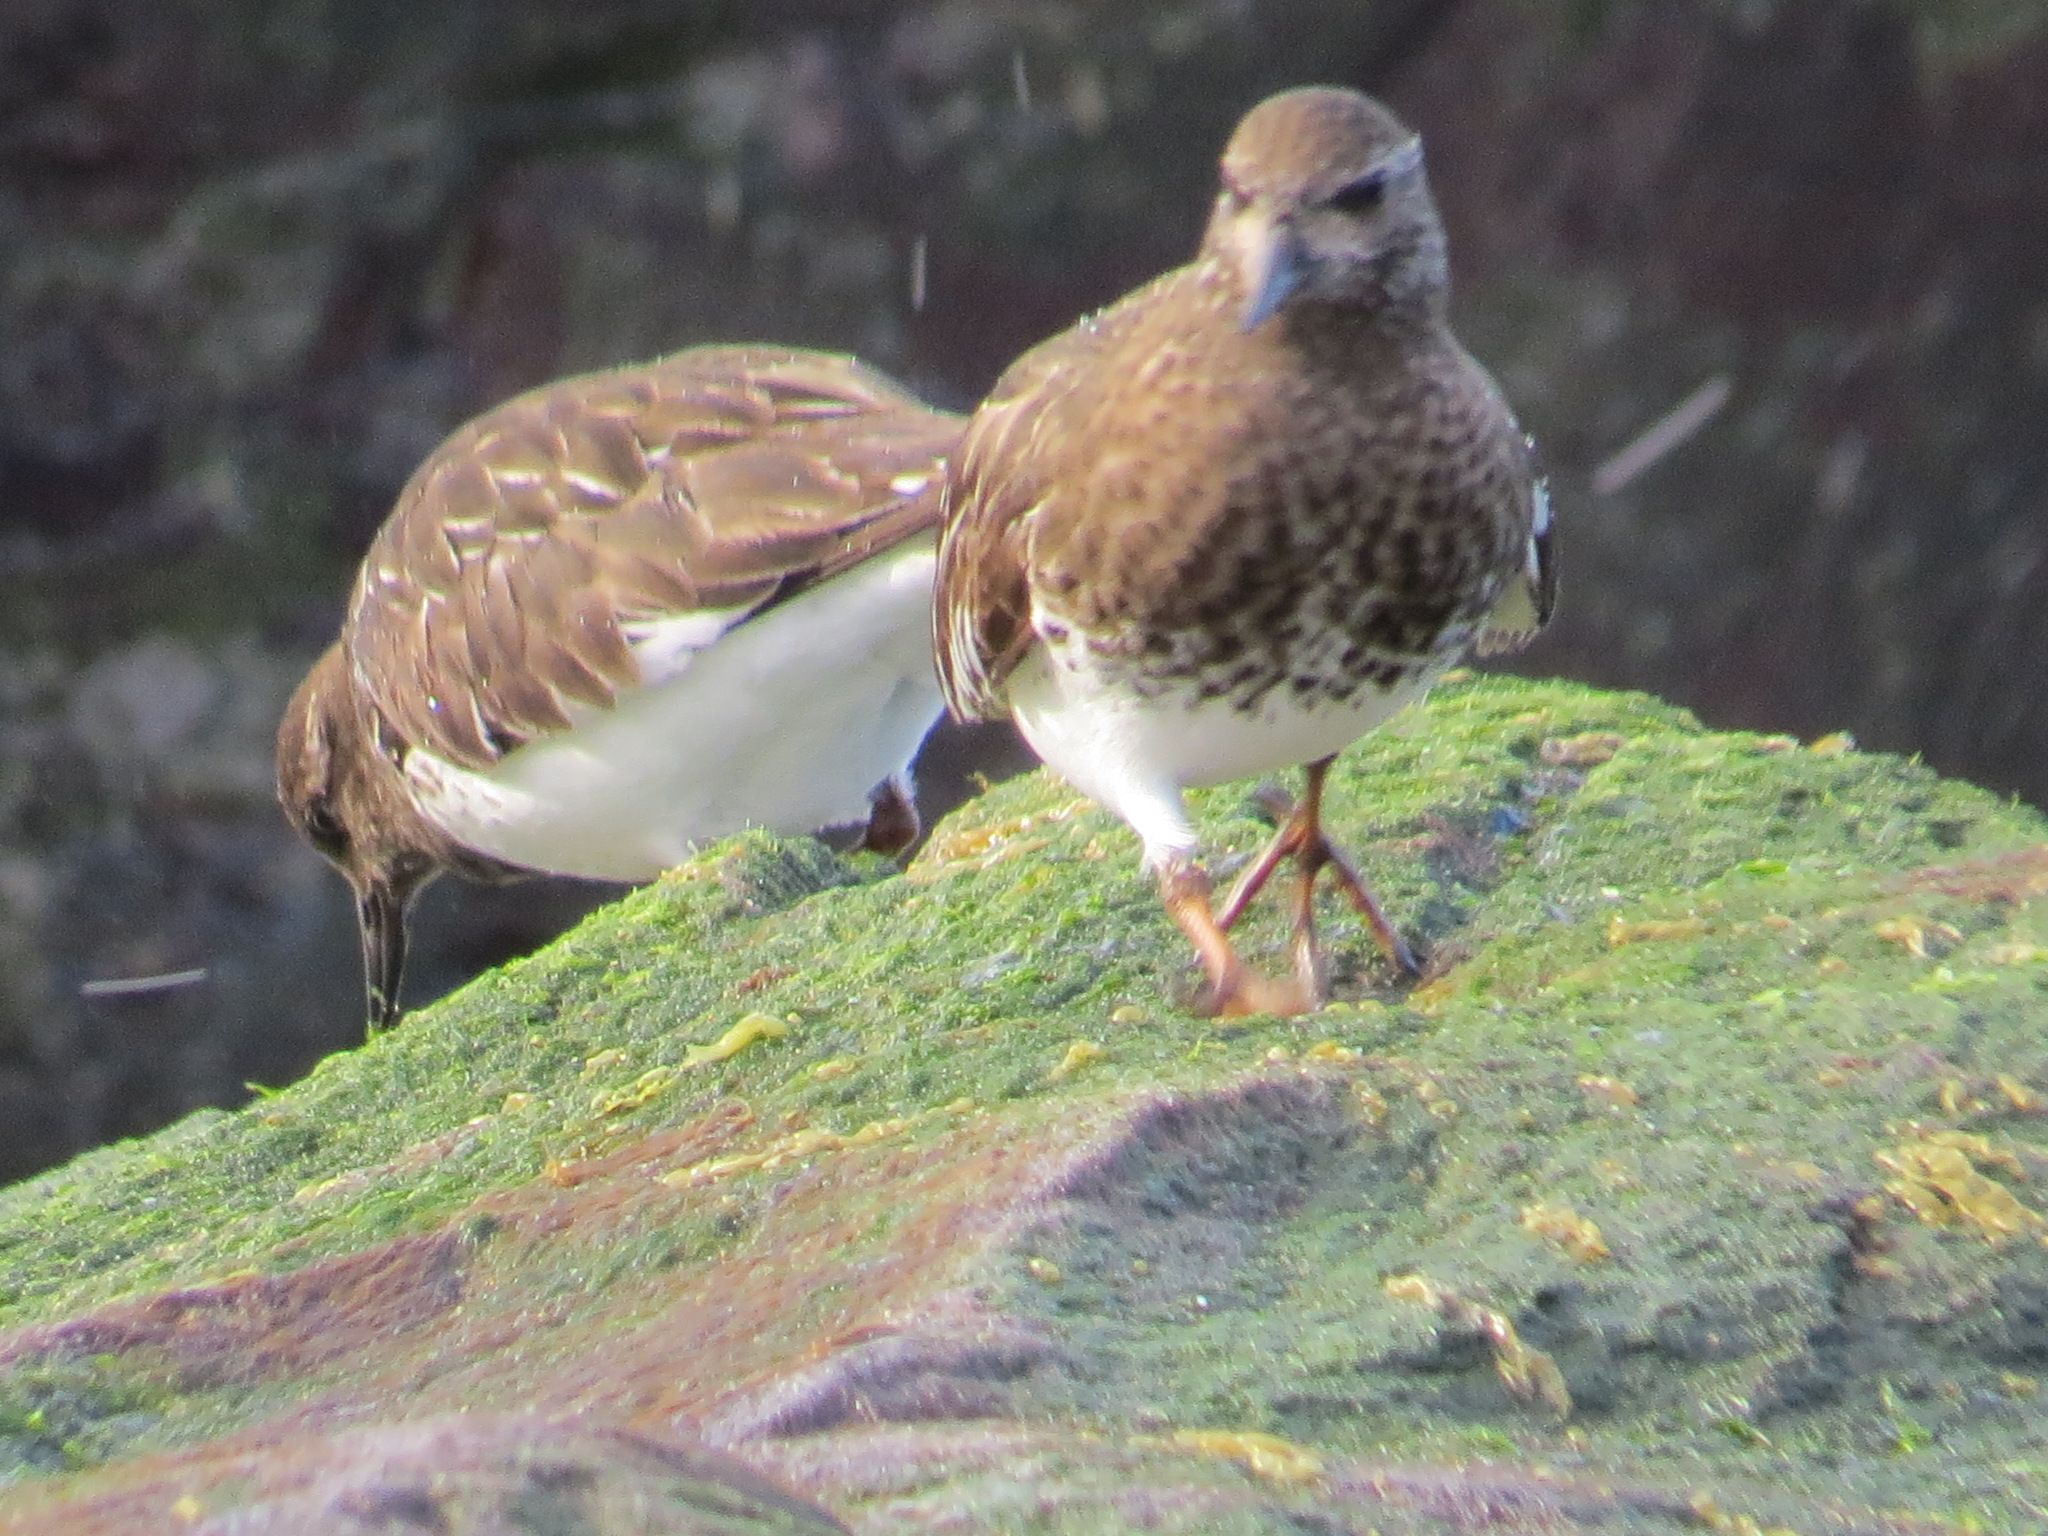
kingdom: Animalia
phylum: Chordata
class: Aves
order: Charadriiformes
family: Scolopacidae
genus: Arenaria
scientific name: Arenaria melanocephala
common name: Black turnstone
